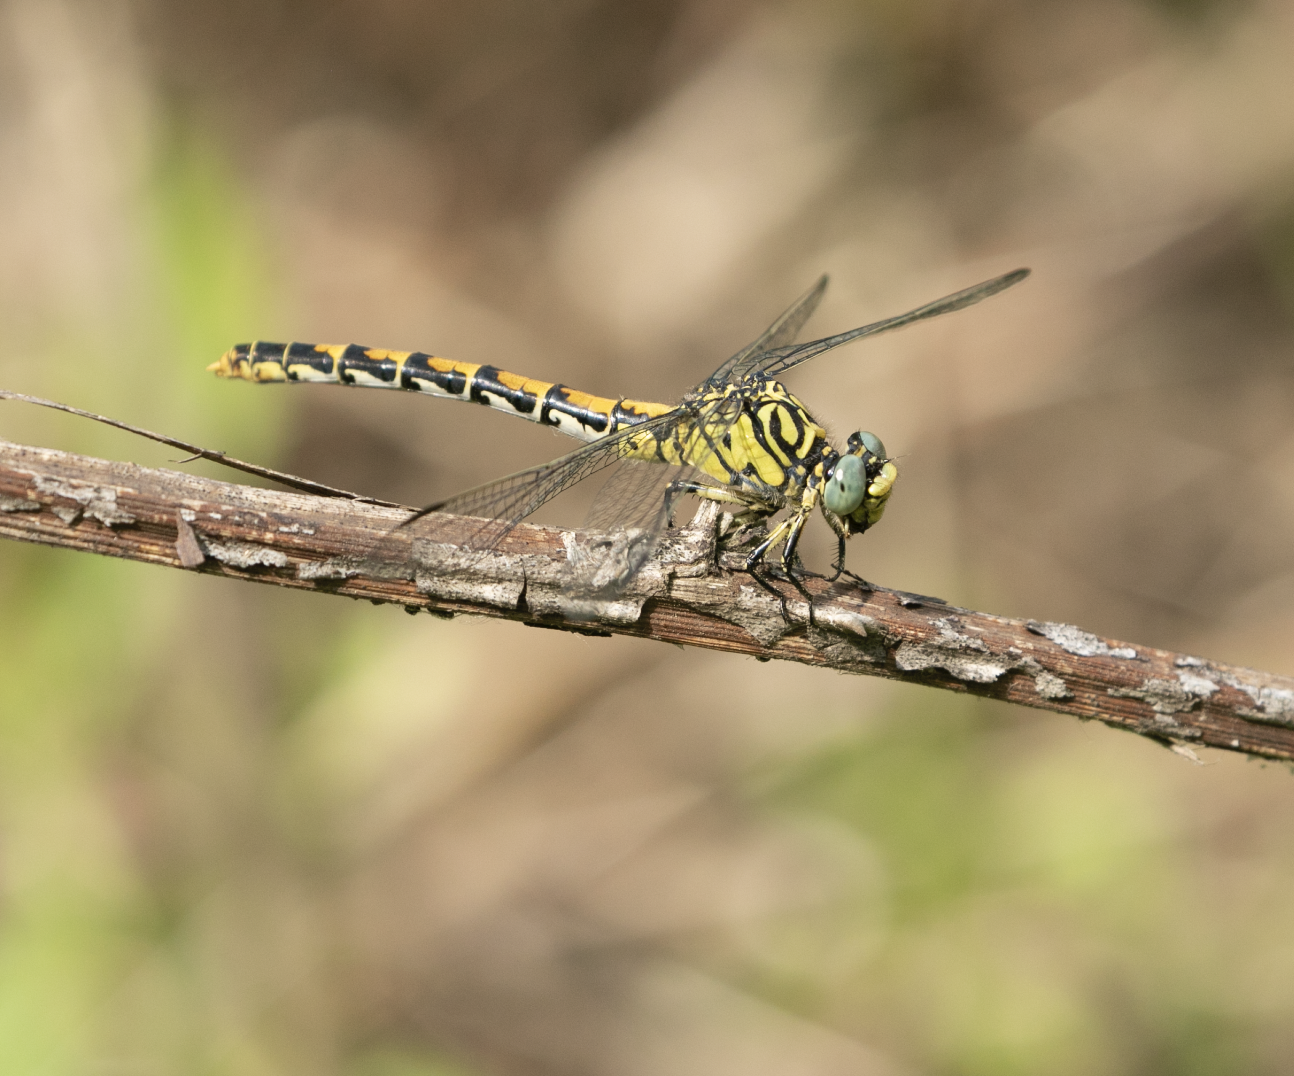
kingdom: Animalia
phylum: Arthropoda
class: Insecta
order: Odonata
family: Gomphidae
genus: Onychogomphus
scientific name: Onychogomphus forcipatus
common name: Small pincertail
